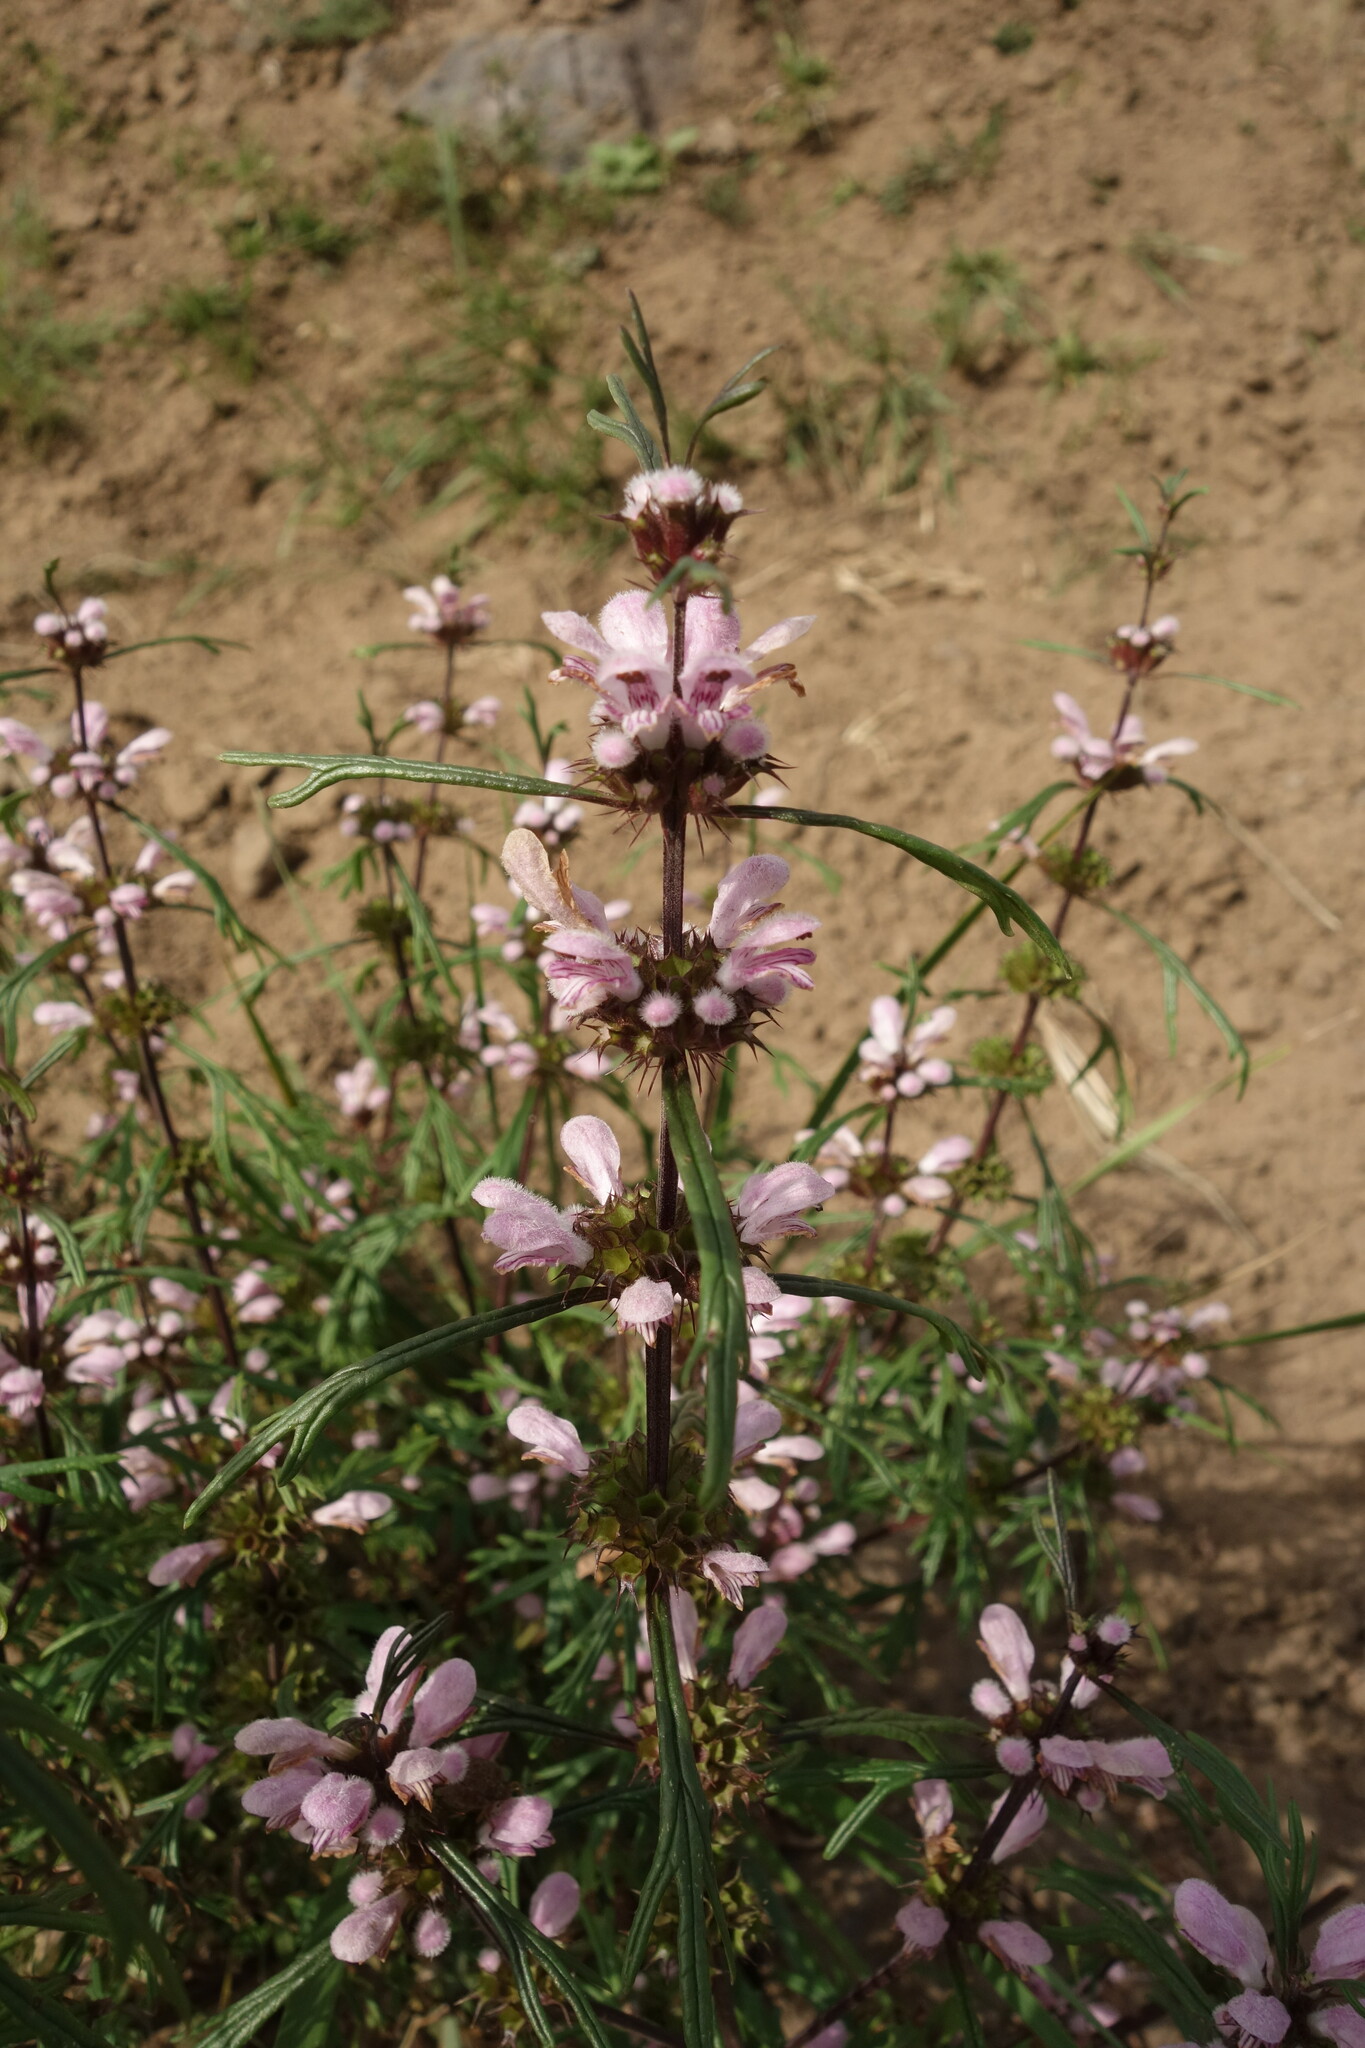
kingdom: Plantae
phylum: Tracheophyta
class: Magnoliopsida
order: Lamiales
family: Lamiaceae
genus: Leonurus
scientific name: Leonurus sibiricus
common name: Honeyweed
